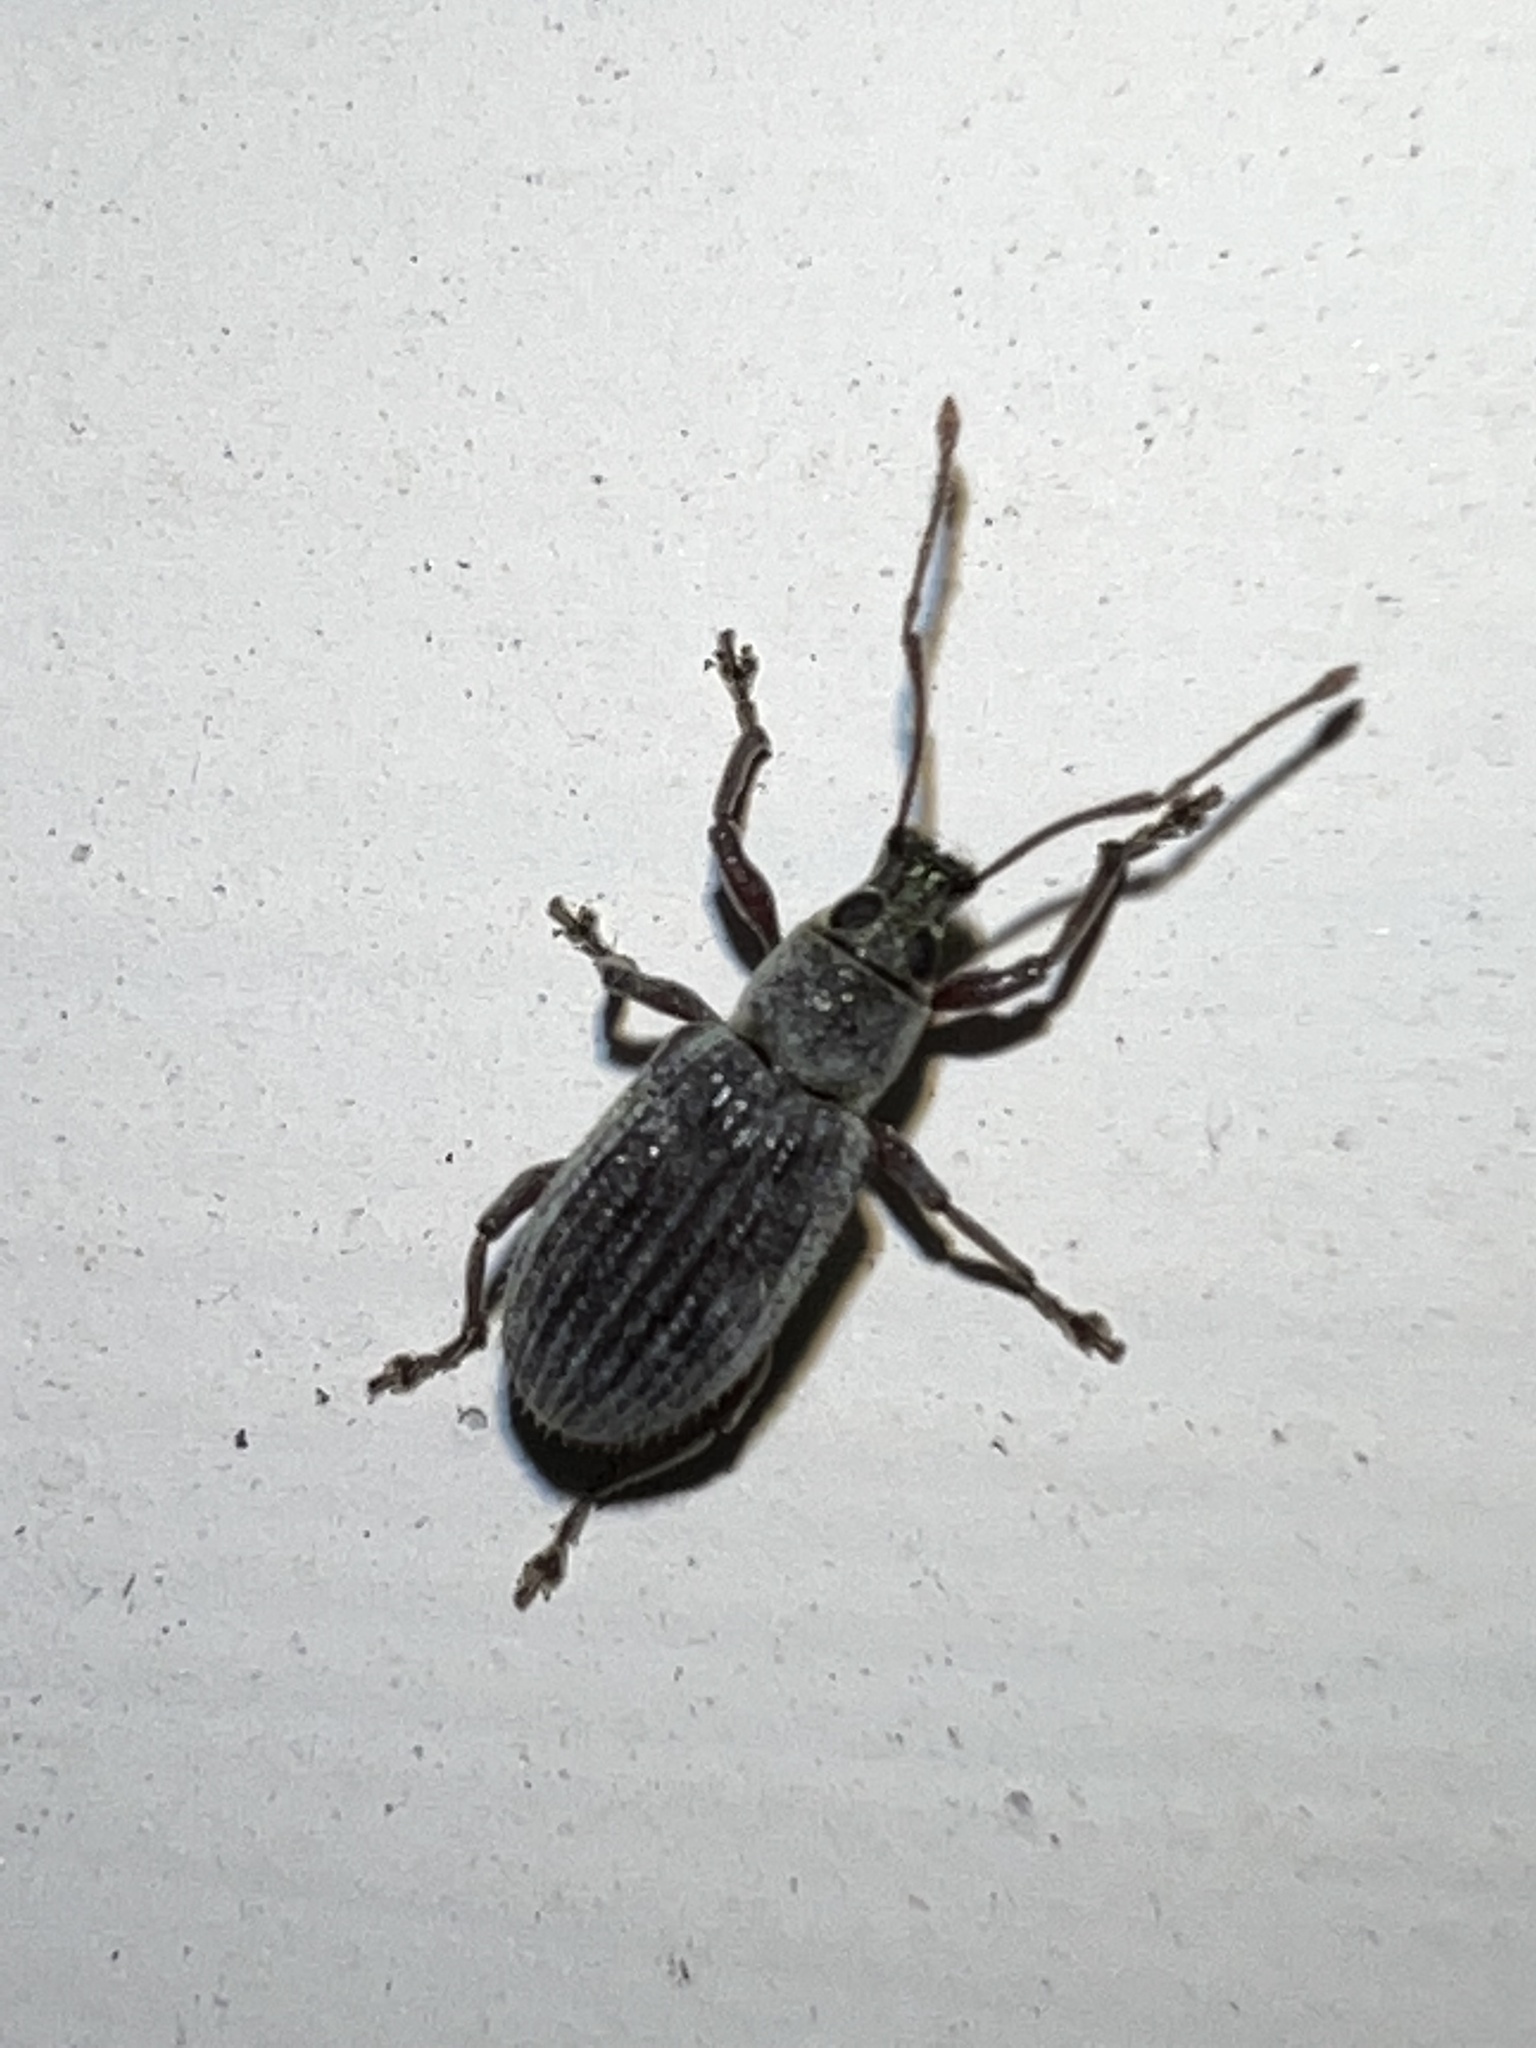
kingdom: Animalia
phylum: Arthropoda
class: Insecta
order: Coleoptera
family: Curculionidae
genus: Cyrtepistomus
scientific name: Cyrtepistomus castaneus
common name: Weevil
